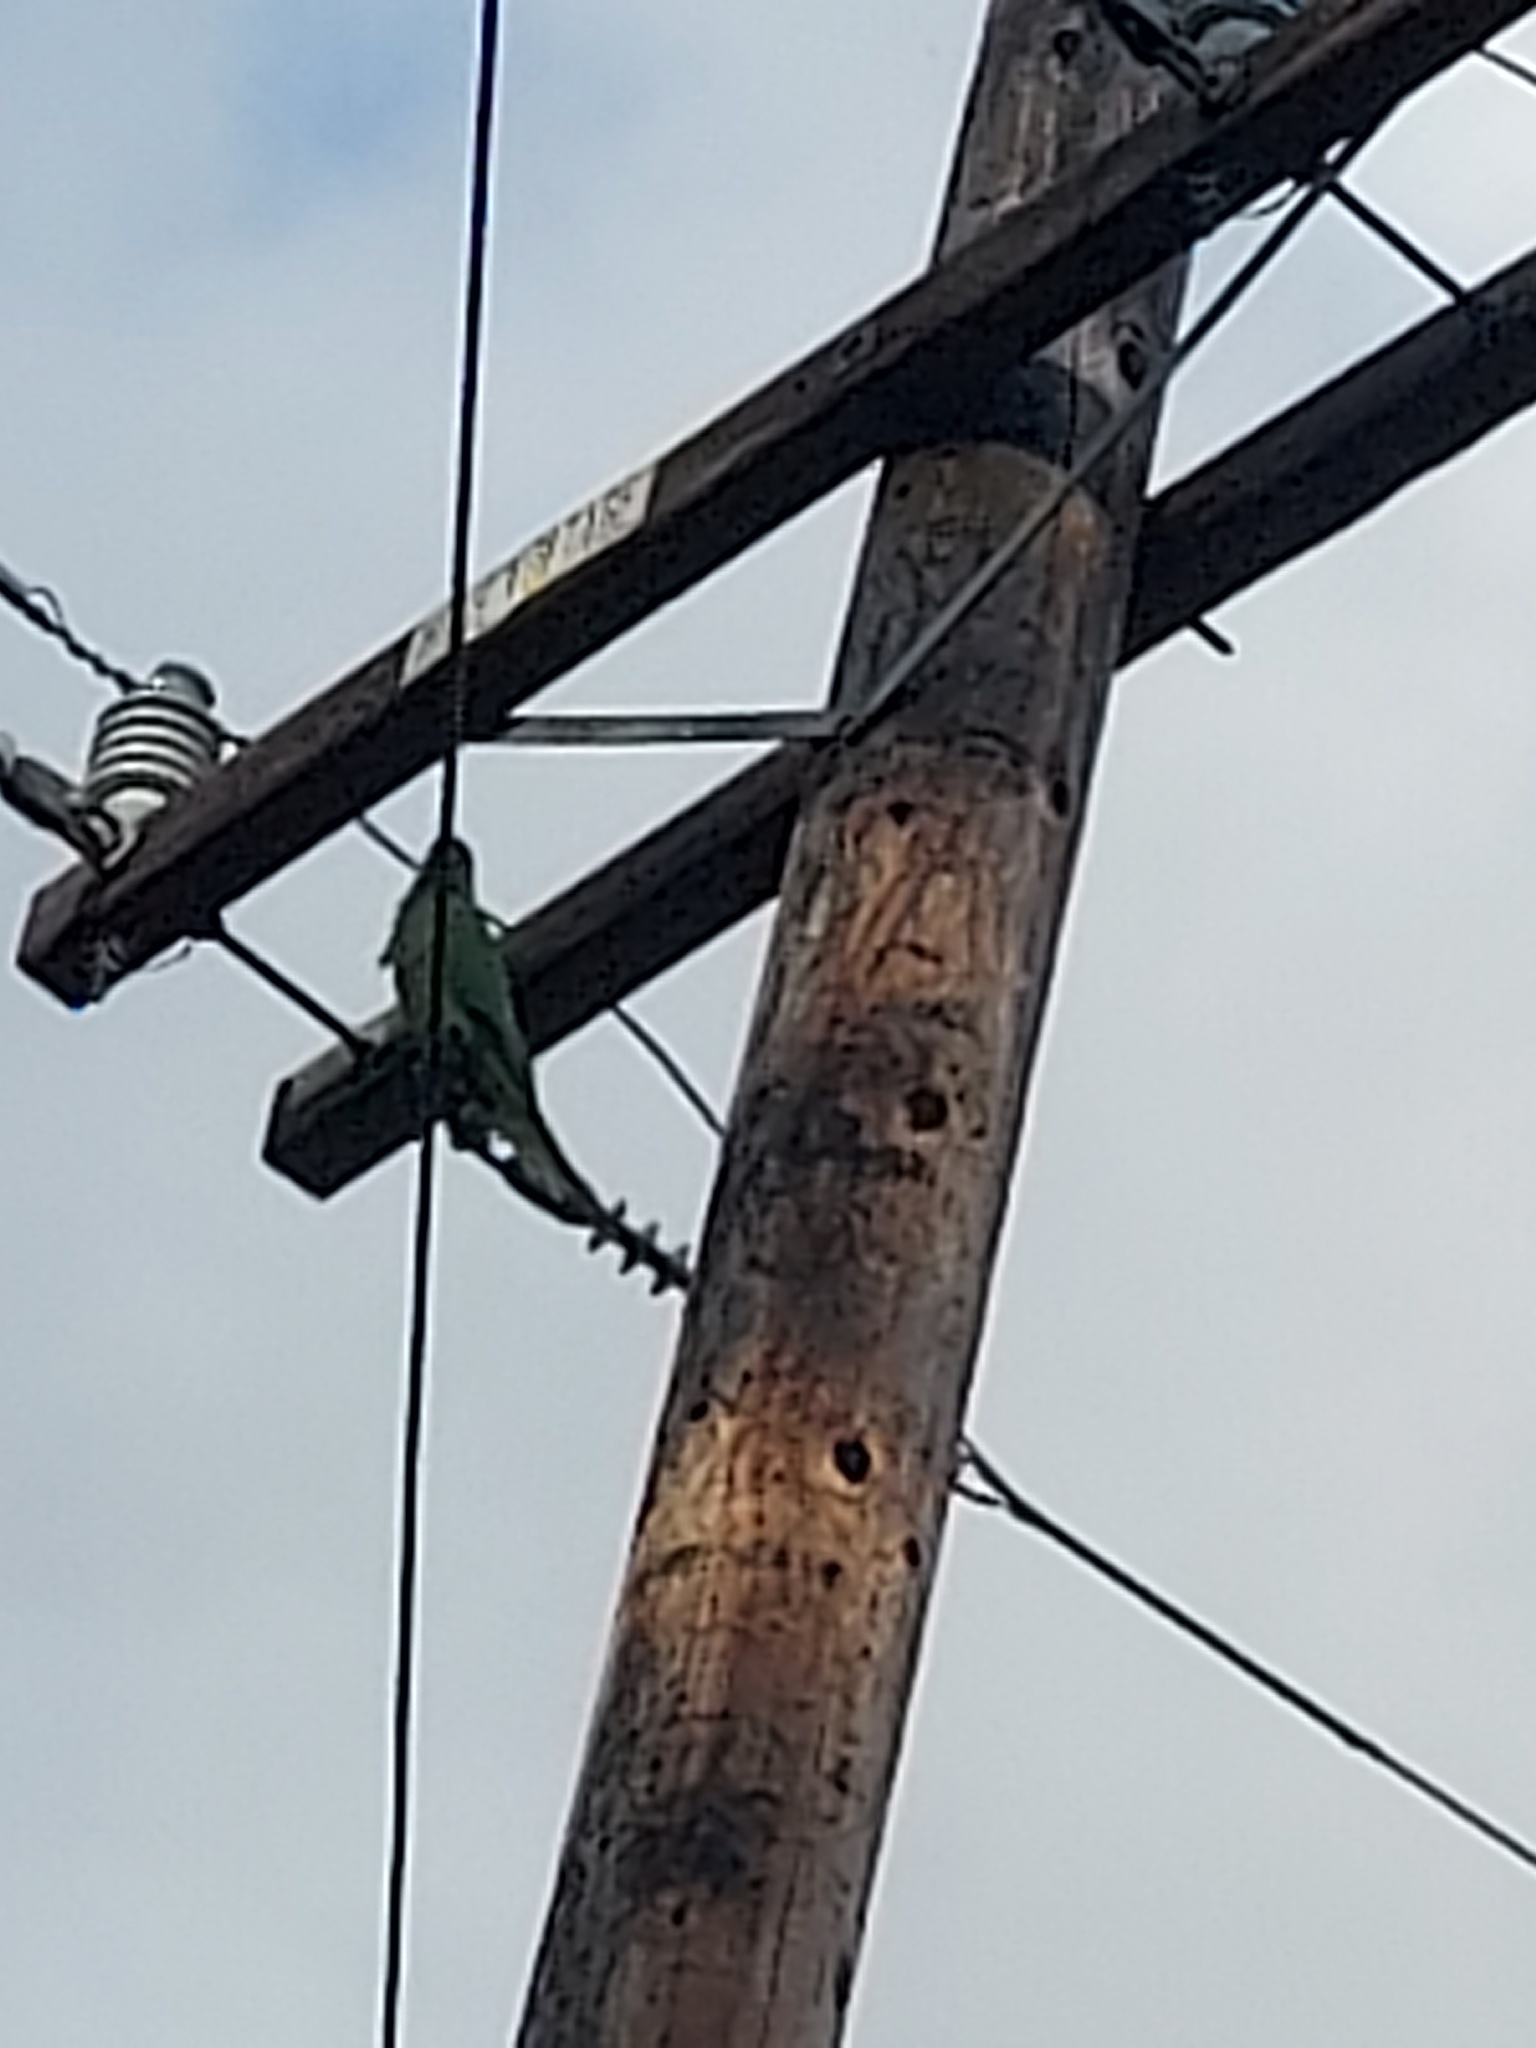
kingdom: Animalia
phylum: Chordata
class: Aves
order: Psittaciformes
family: Psittacidae
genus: Psittacula
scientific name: Psittacula krameri
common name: Rose-ringed parakeet
